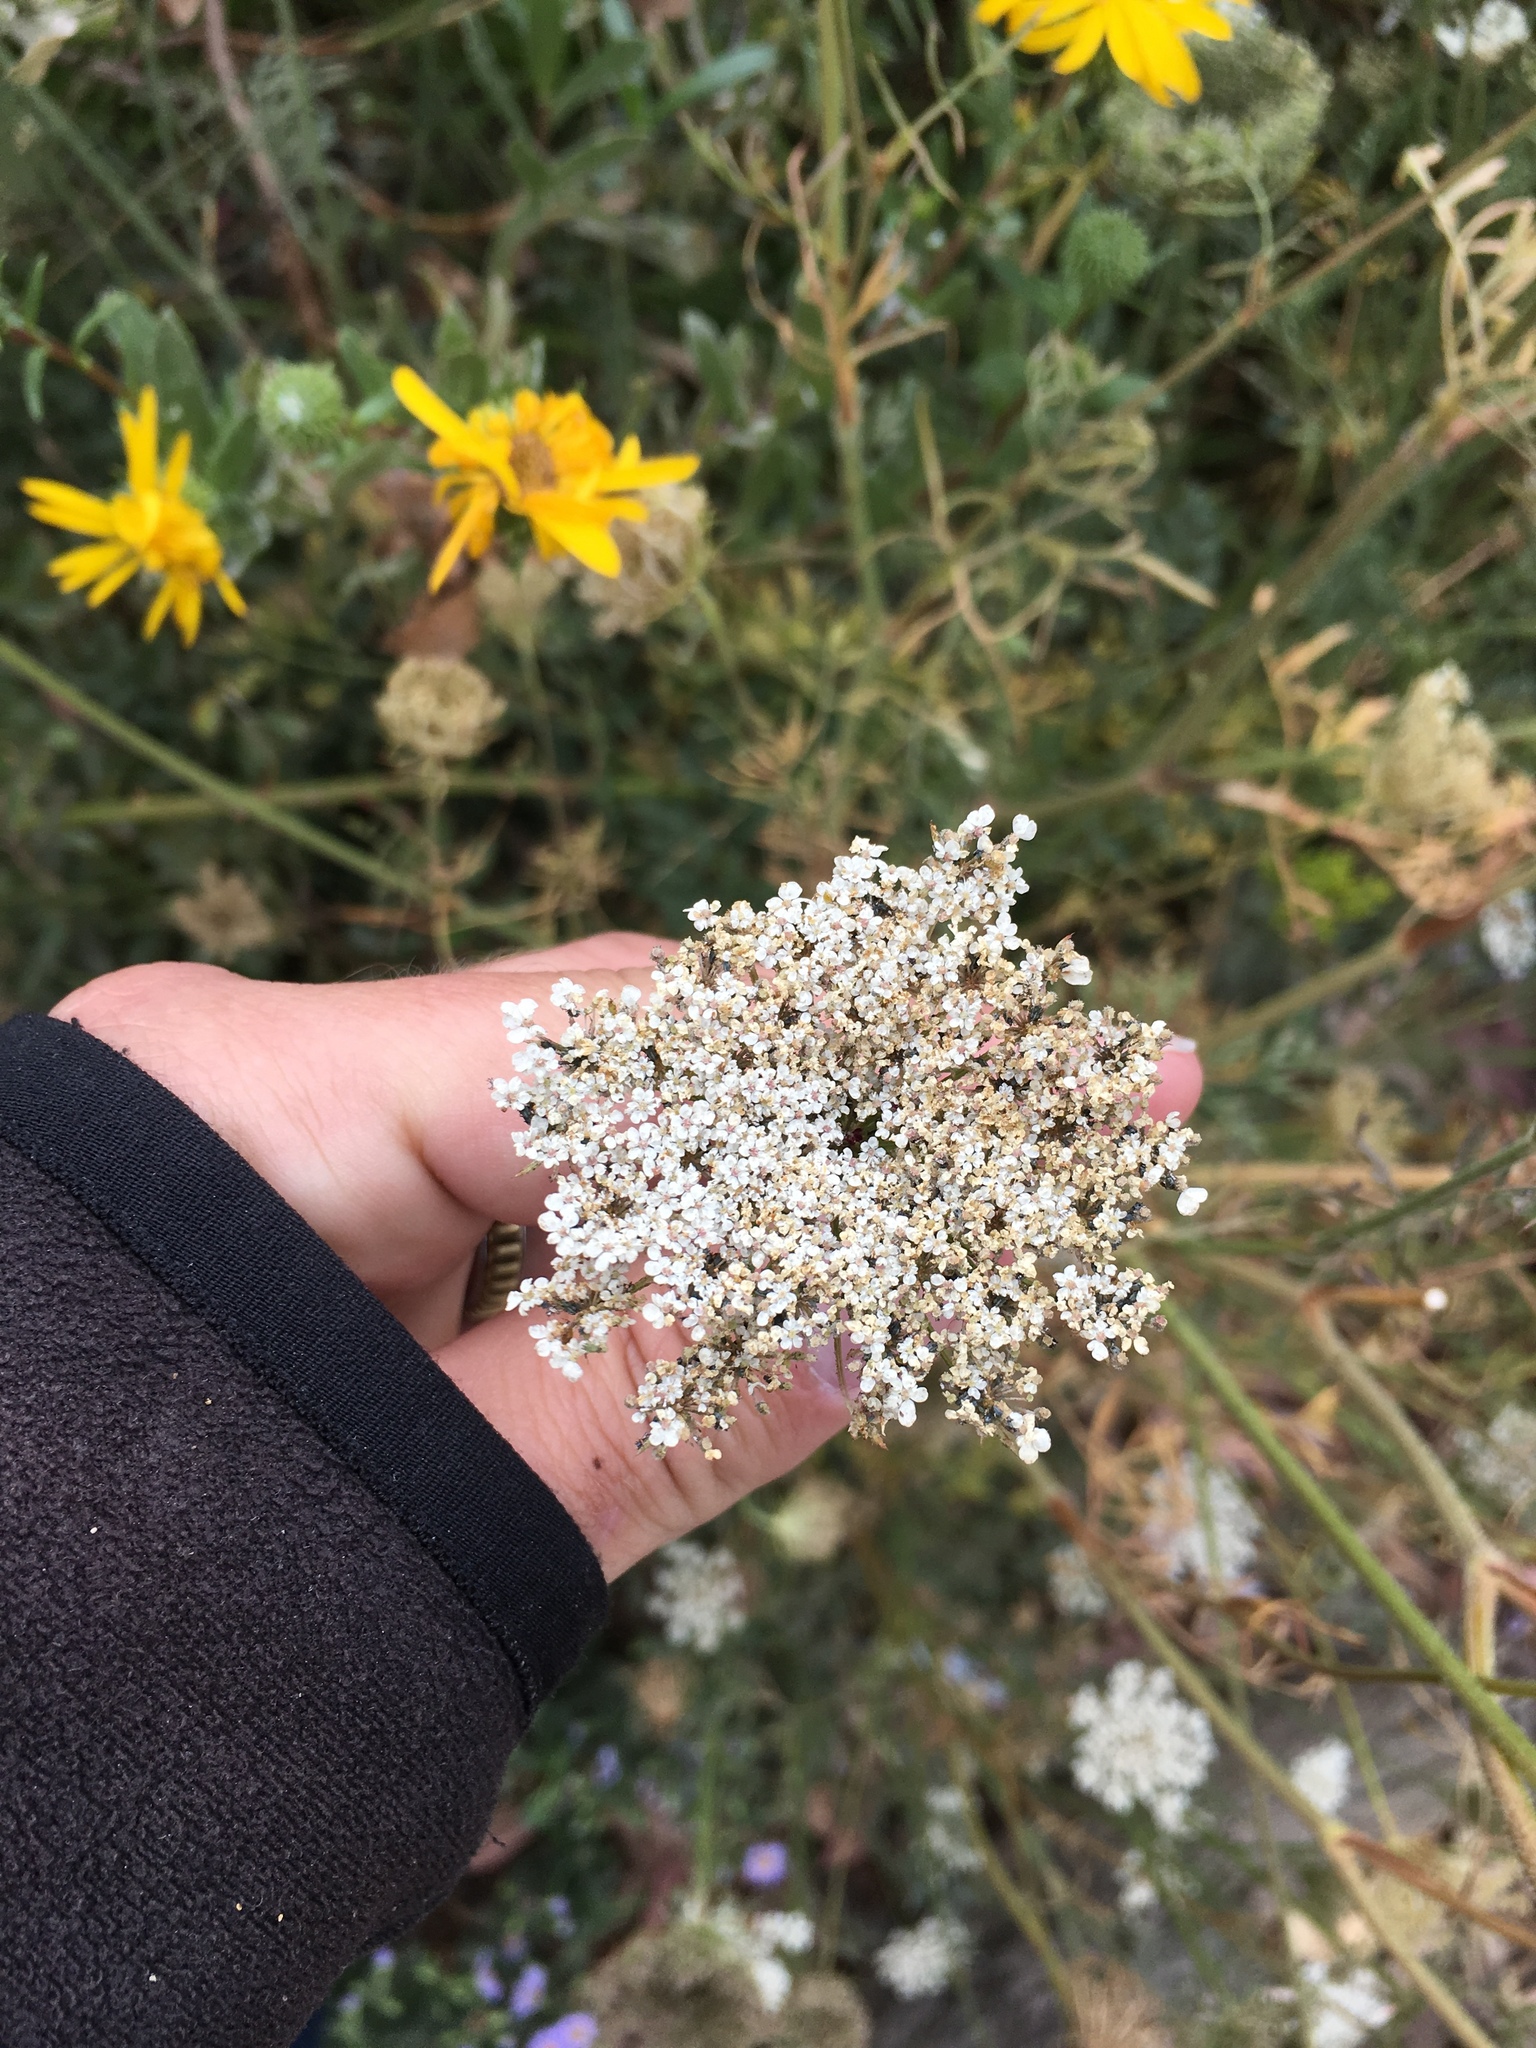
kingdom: Plantae
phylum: Tracheophyta
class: Magnoliopsida
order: Apiales
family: Apiaceae
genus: Daucus
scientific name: Daucus carota
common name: Wild carrot
